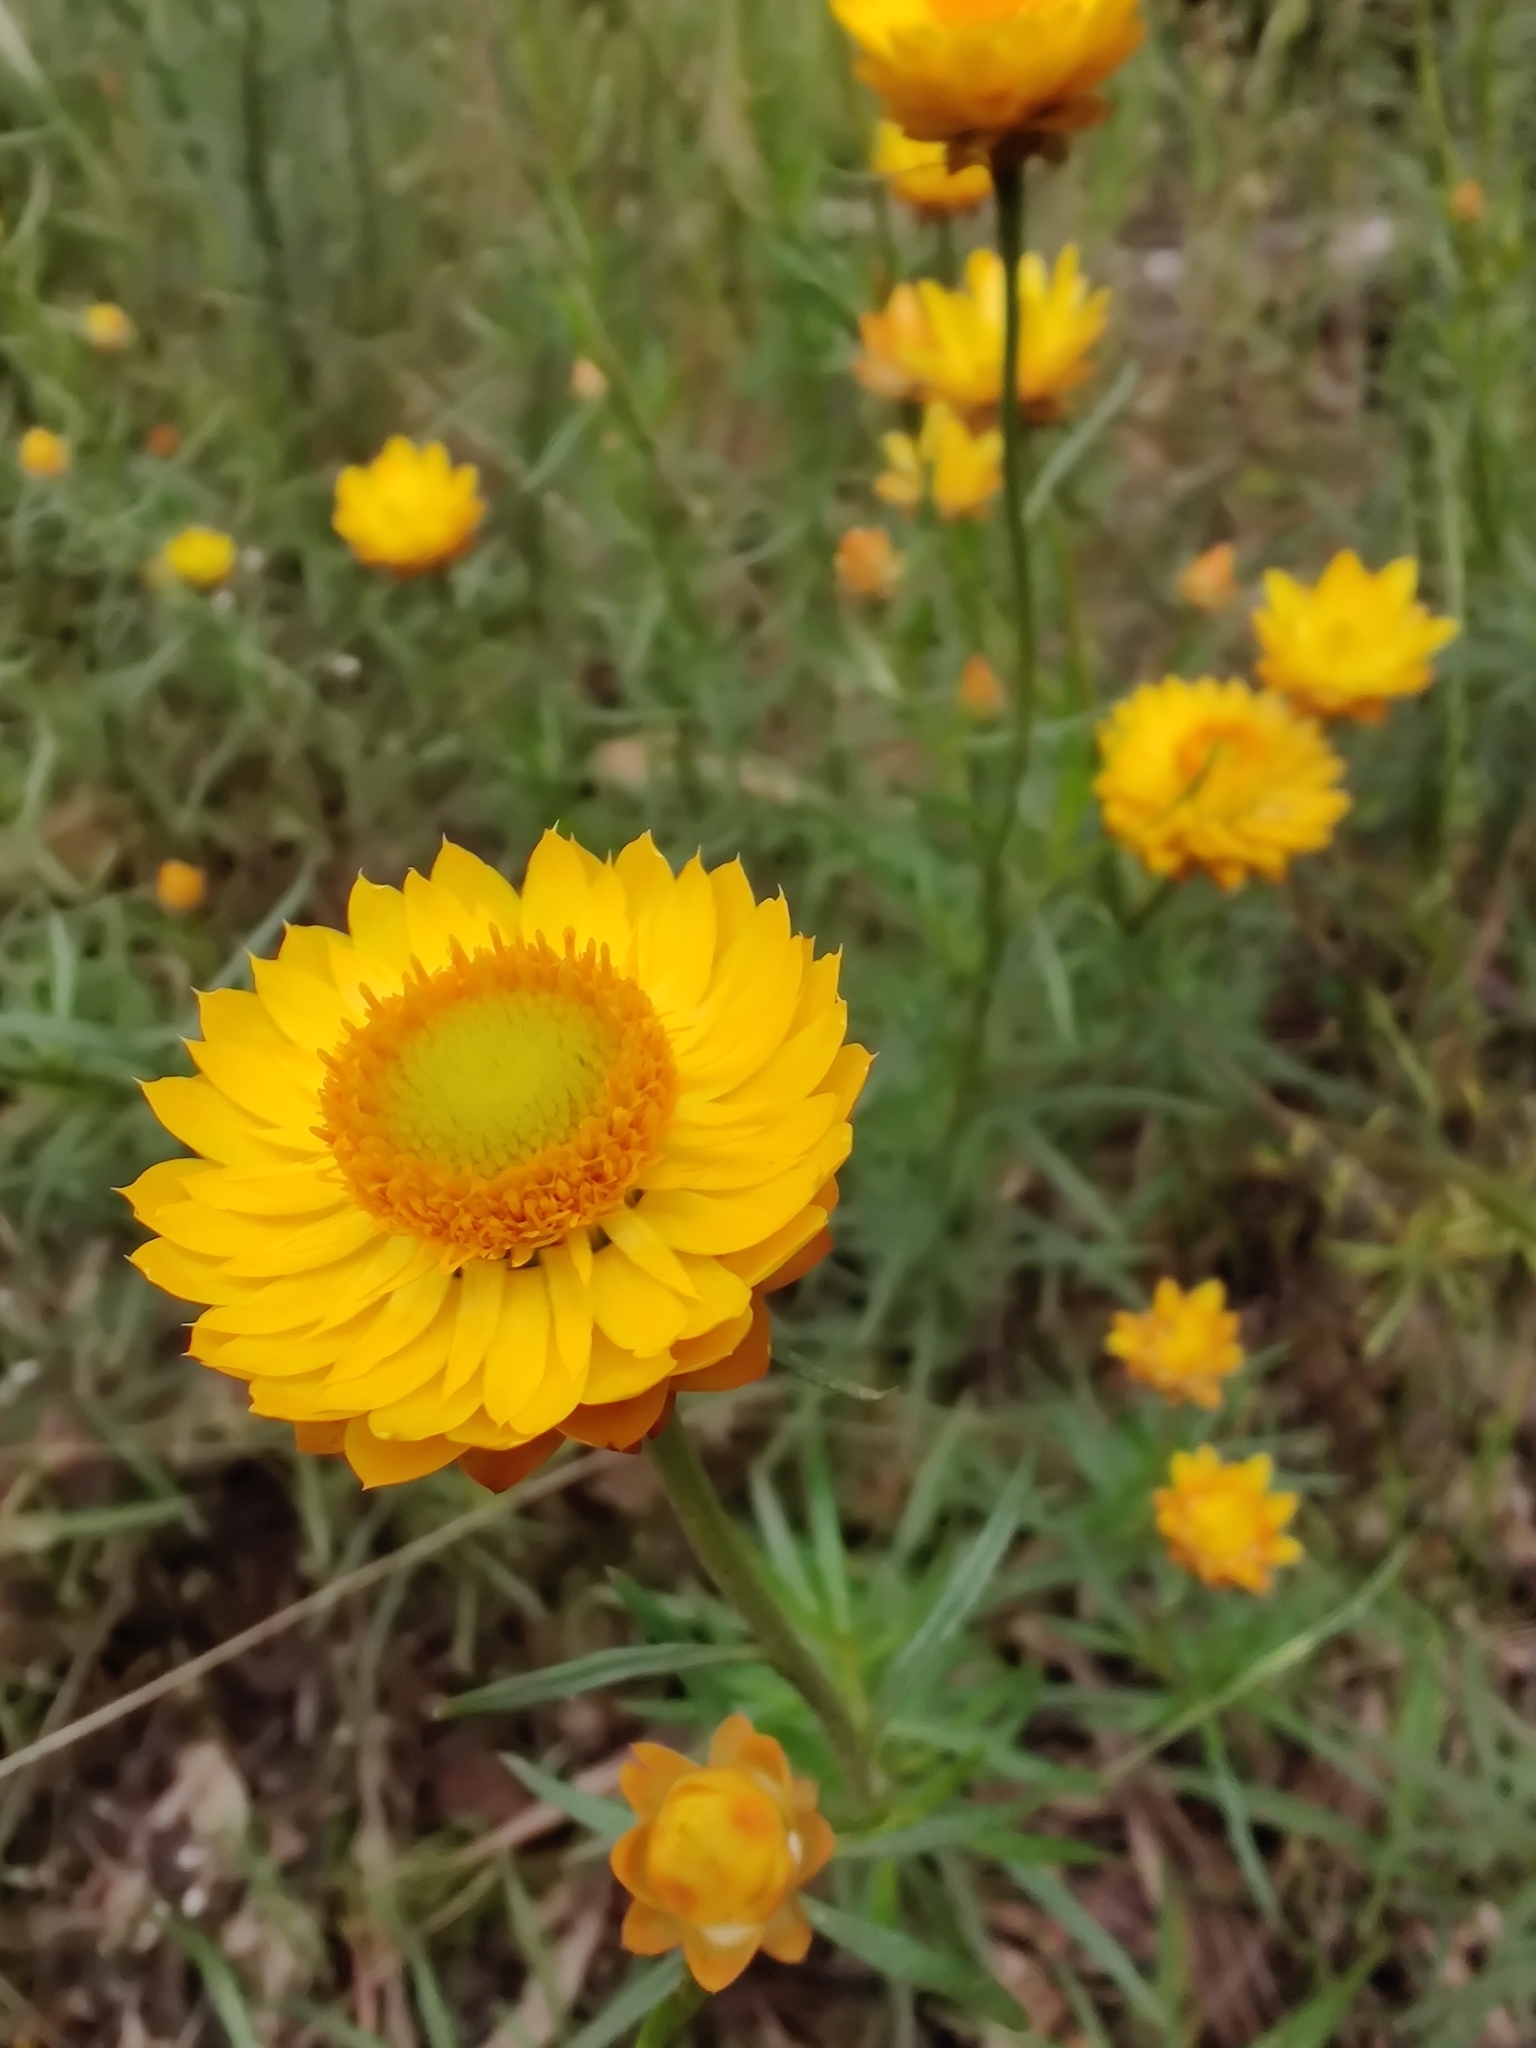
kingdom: Plantae
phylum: Tracheophyta
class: Magnoliopsida
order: Asterales
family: Asteraceae
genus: Xerochrysum
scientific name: Xerochrysum viscosum
